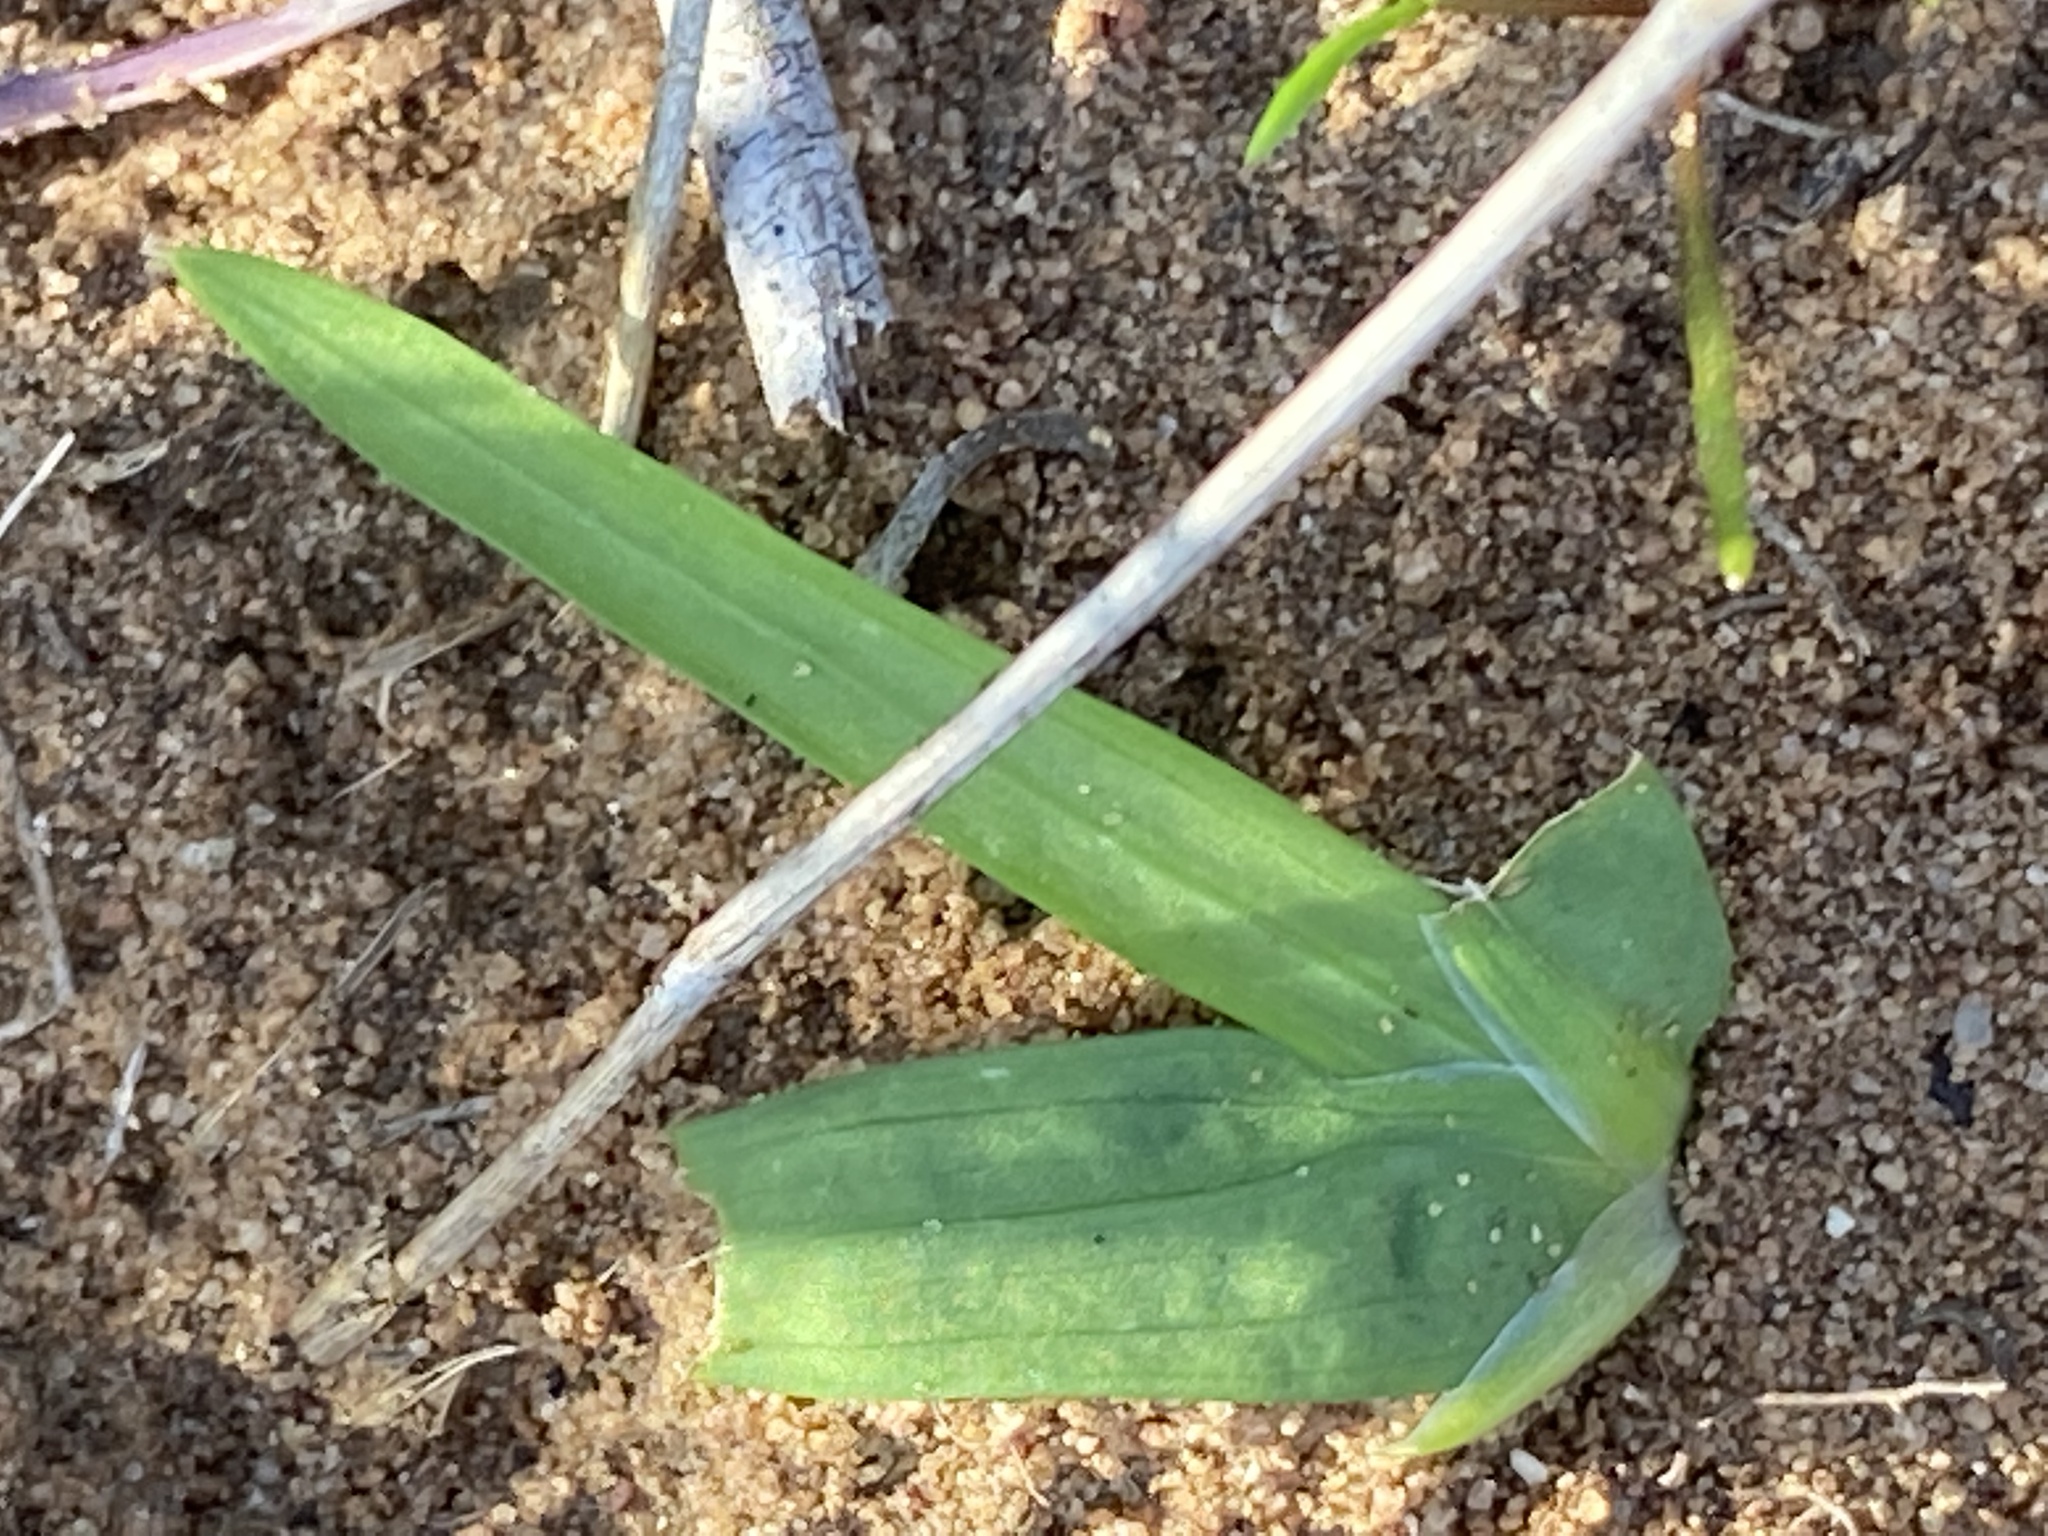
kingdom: Plantae
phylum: Tracheophyta
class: Liliopsida
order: Asparagales
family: Iridaceae
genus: Freesia
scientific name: Freesia caryophyllacea
